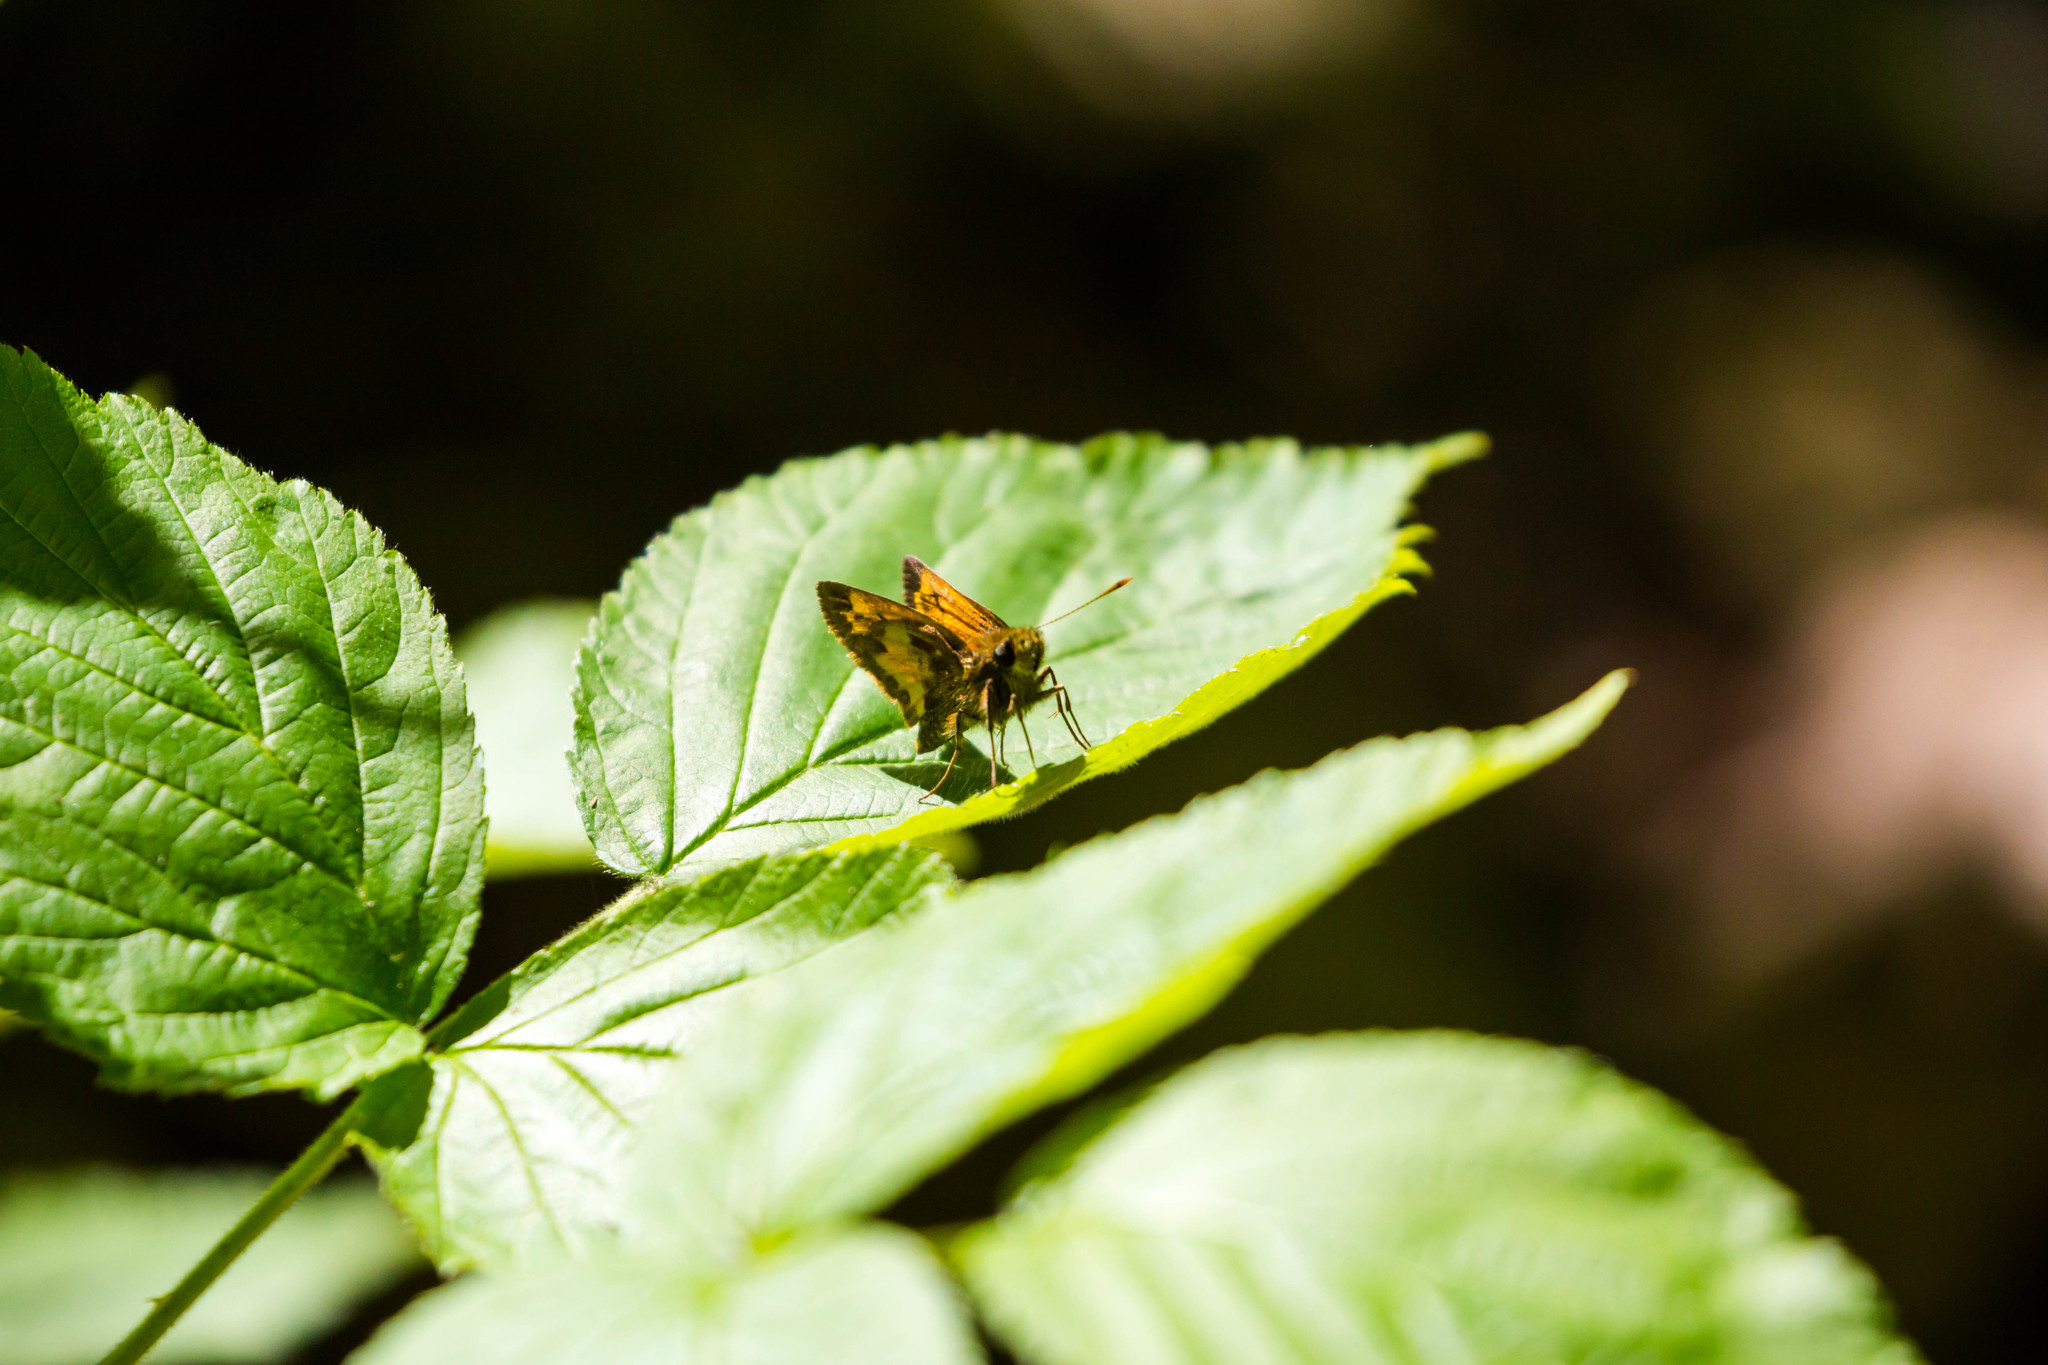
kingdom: Animalia
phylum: Arthropoda
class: Insecta
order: Lepidoptera
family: Hesperiidae
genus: Lon
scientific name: Lon hobomok
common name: Hobomok skipper
